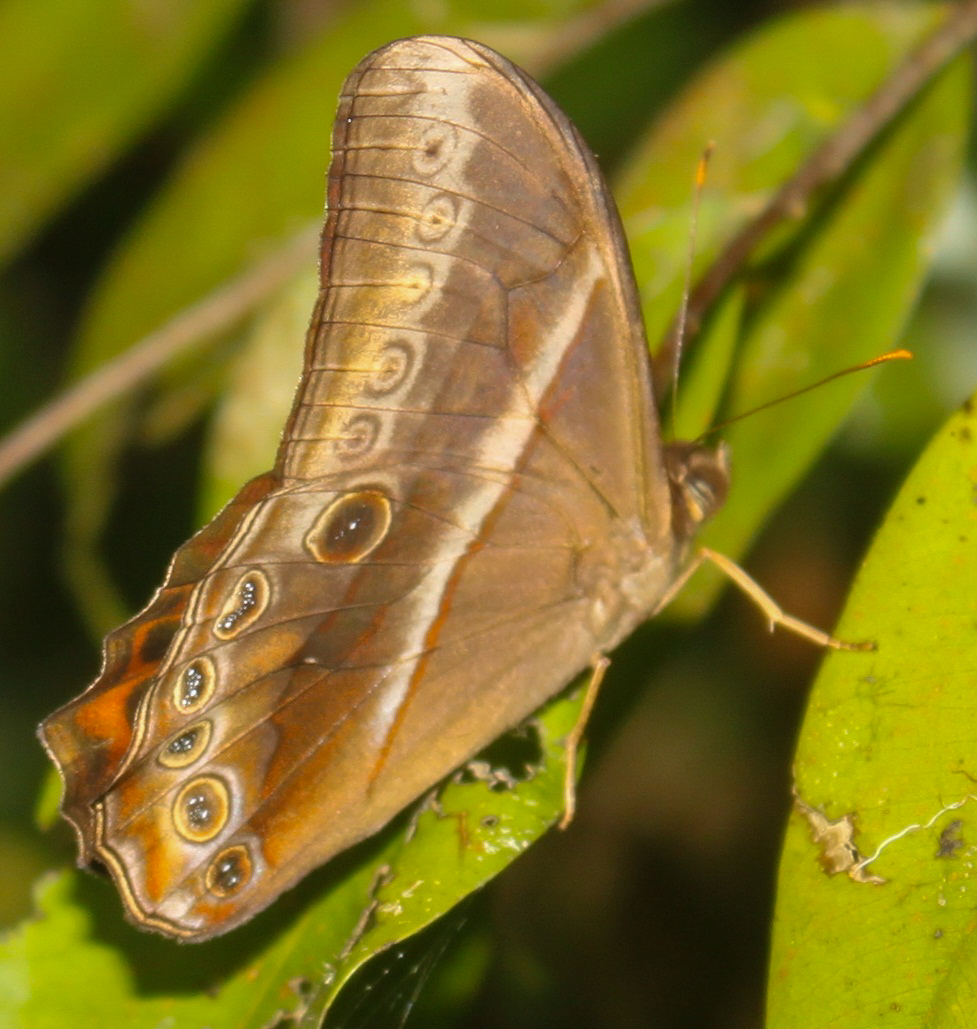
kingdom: Animalia
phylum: Arthropoda
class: Insecta
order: Lepidoptera
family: Nymphalidae
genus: Lethe
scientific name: Lethe mekara
